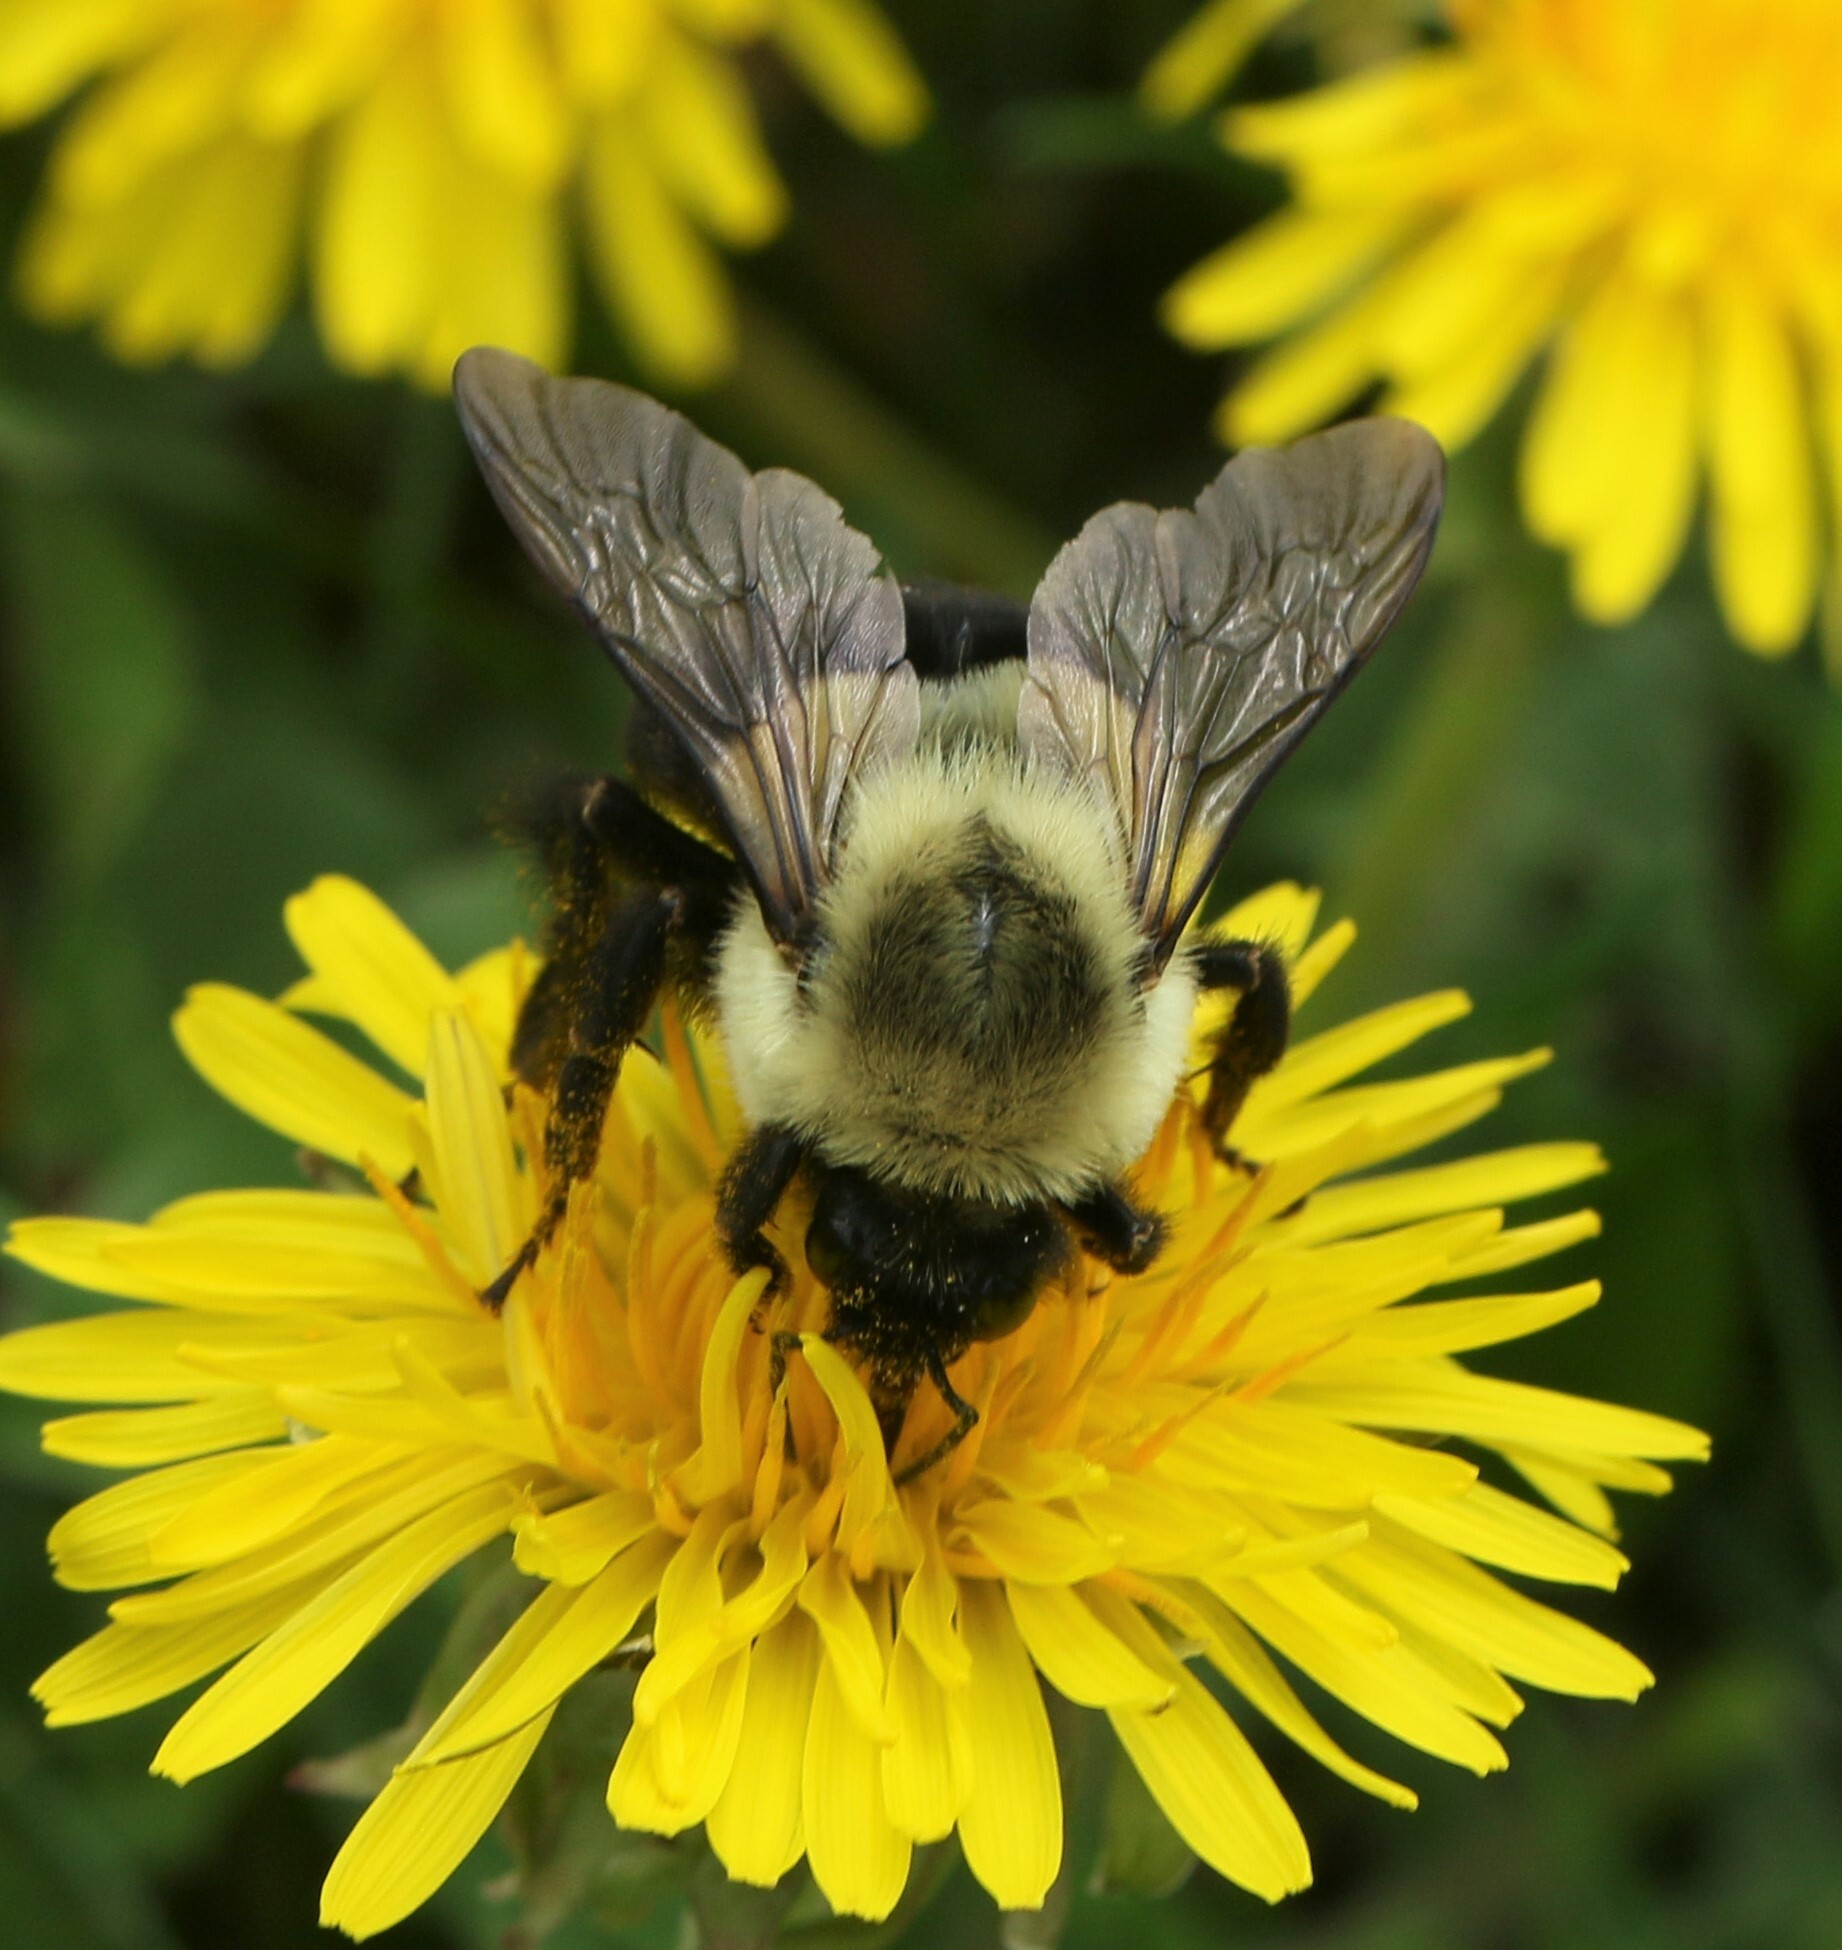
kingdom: Animalia
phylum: Arthropoda
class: Insecta
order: Hymenoptera
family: Apidae
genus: Bombus
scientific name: Bombus impatiens
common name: Common eastern bumble bee
